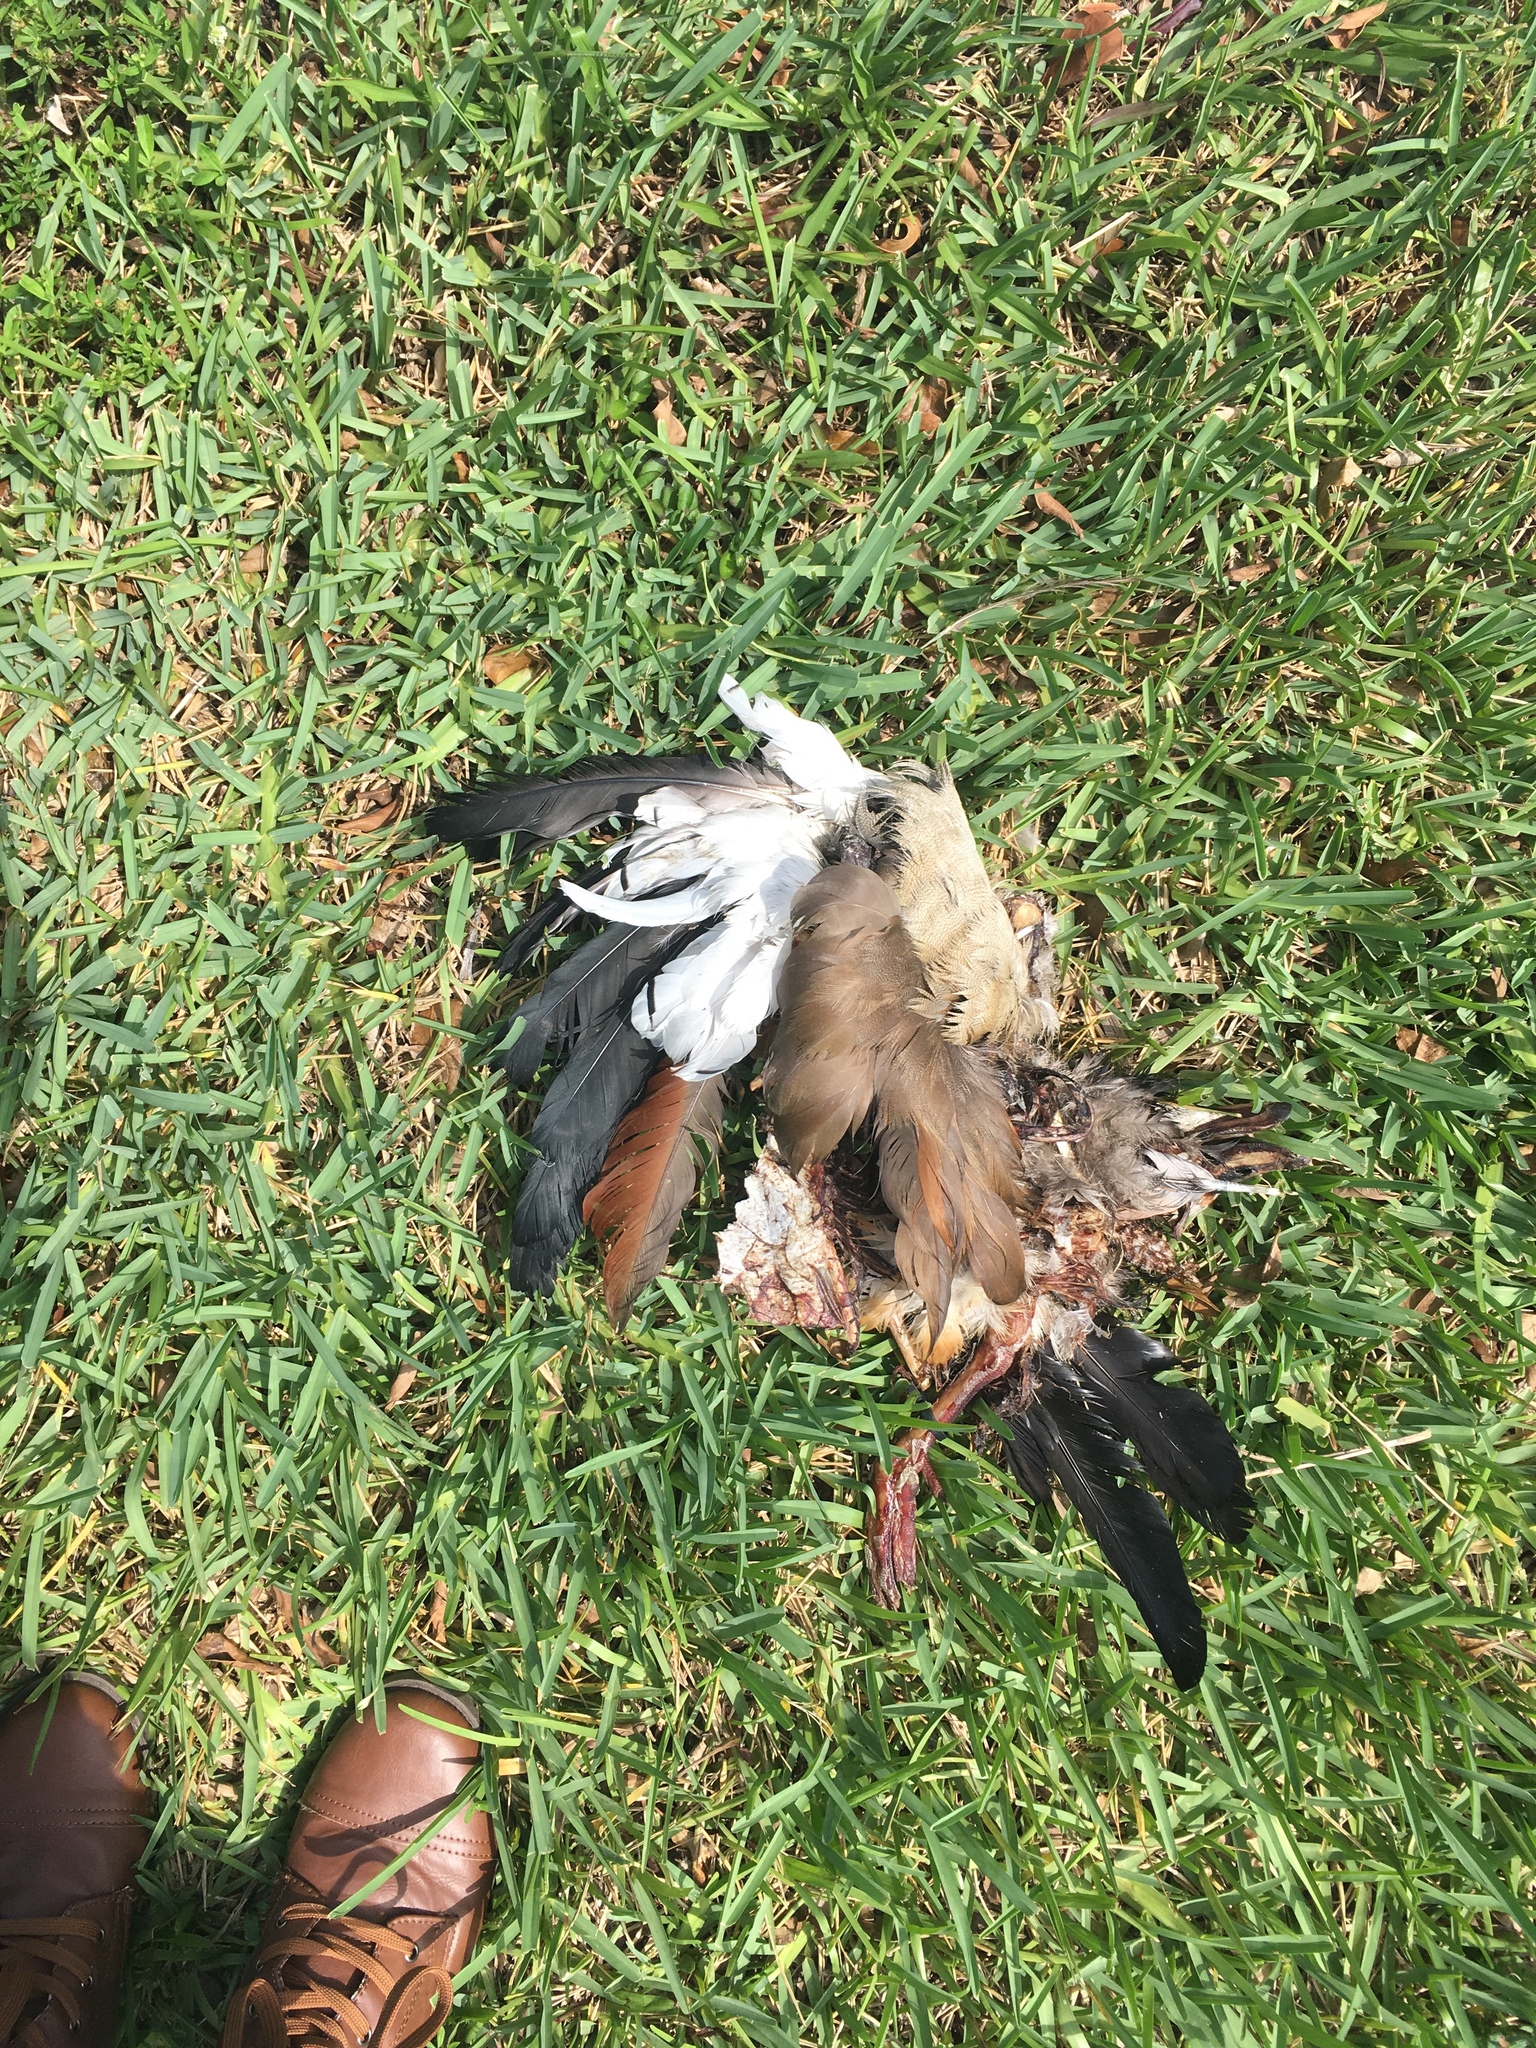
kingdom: Animalia
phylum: Chordata
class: Aves
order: Anseriformes
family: Anatidae
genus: Alopochen
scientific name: Alopochen aegyptiaca
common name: Egyptian goose
